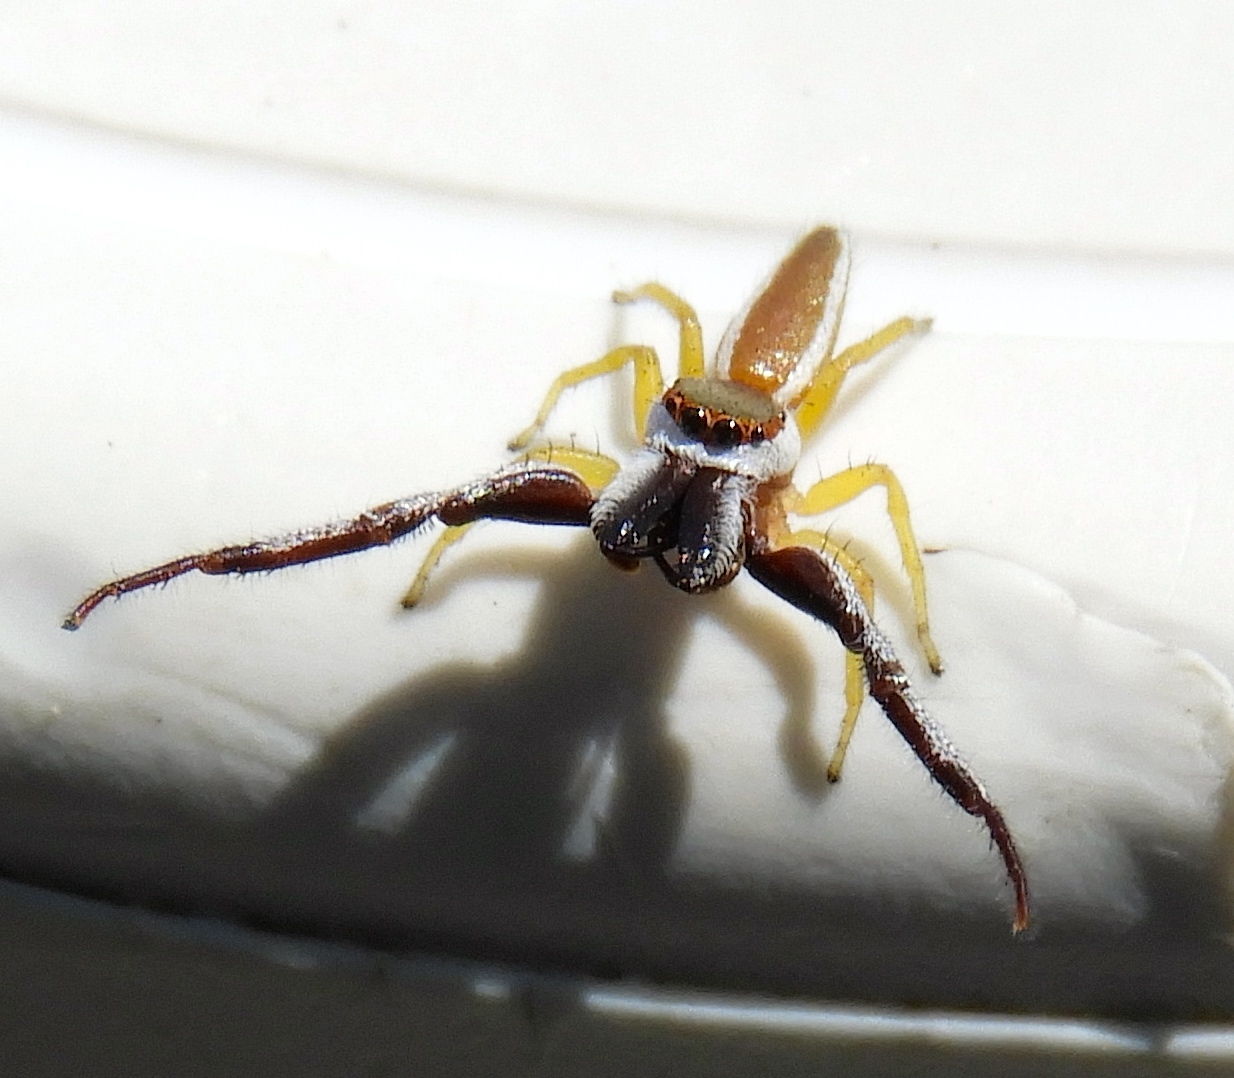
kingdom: Animalia
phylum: Arthropoda
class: Arachnida
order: Araneae
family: Salticidae
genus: Hentzia
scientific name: Hentzia palmarum
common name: Common hentz jumping spider
